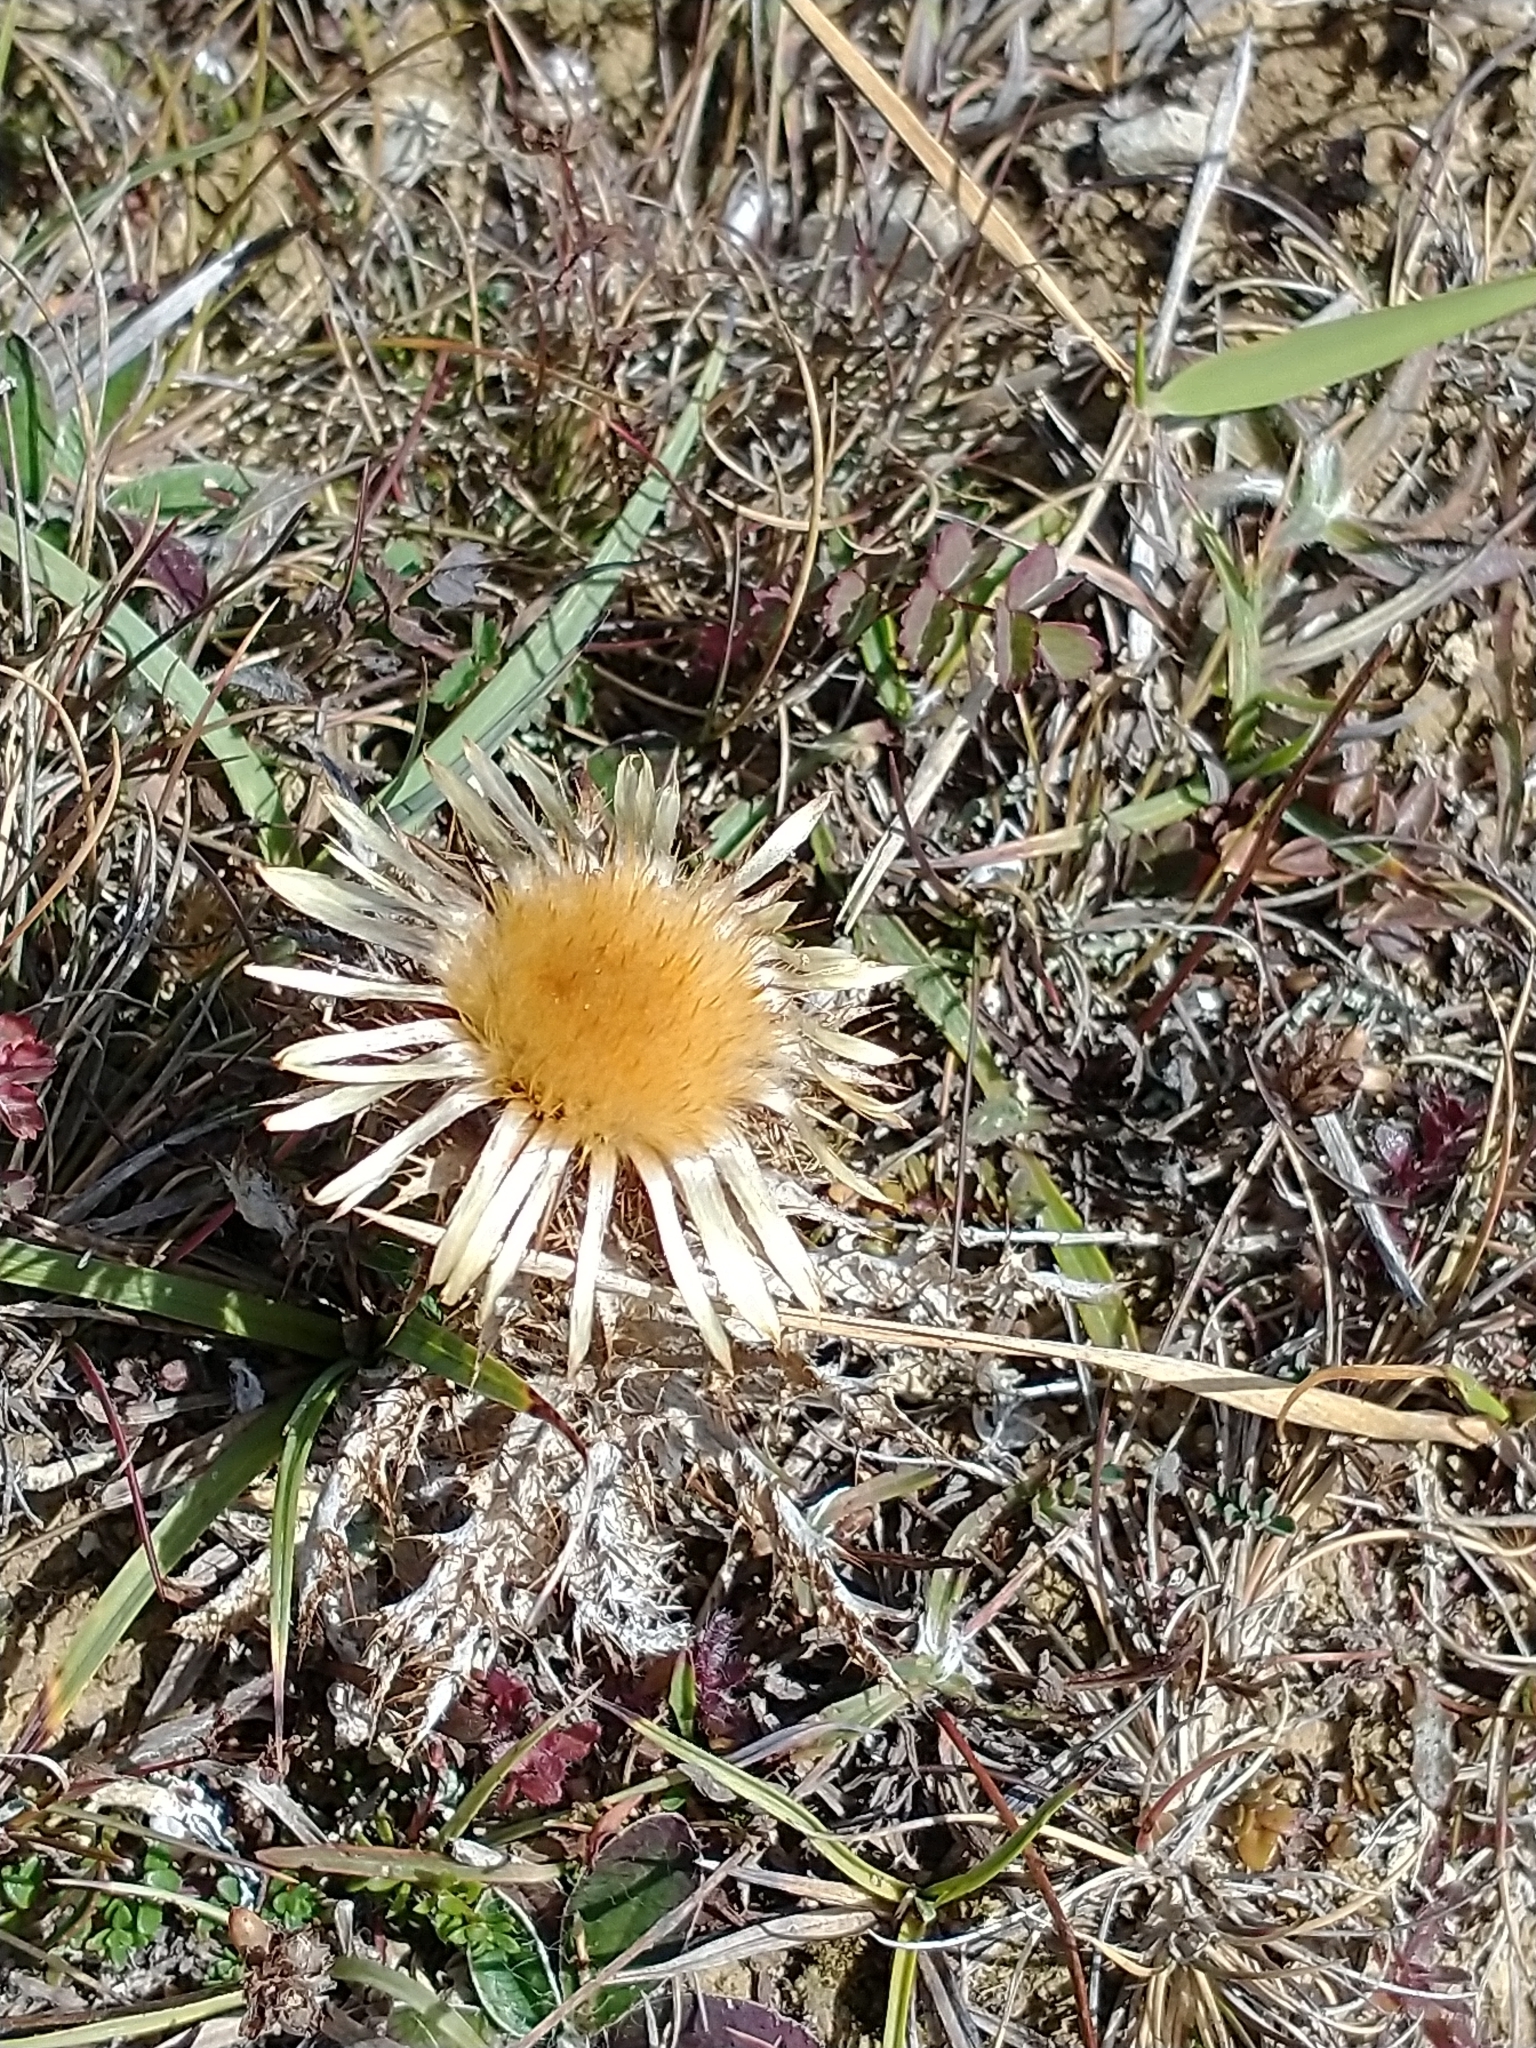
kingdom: Plantae
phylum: Tracheophyta
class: Magnoliopsida
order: Asterales
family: Asteraceae
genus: Carlina
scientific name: Carlina vulgaris
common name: Carline thistle
